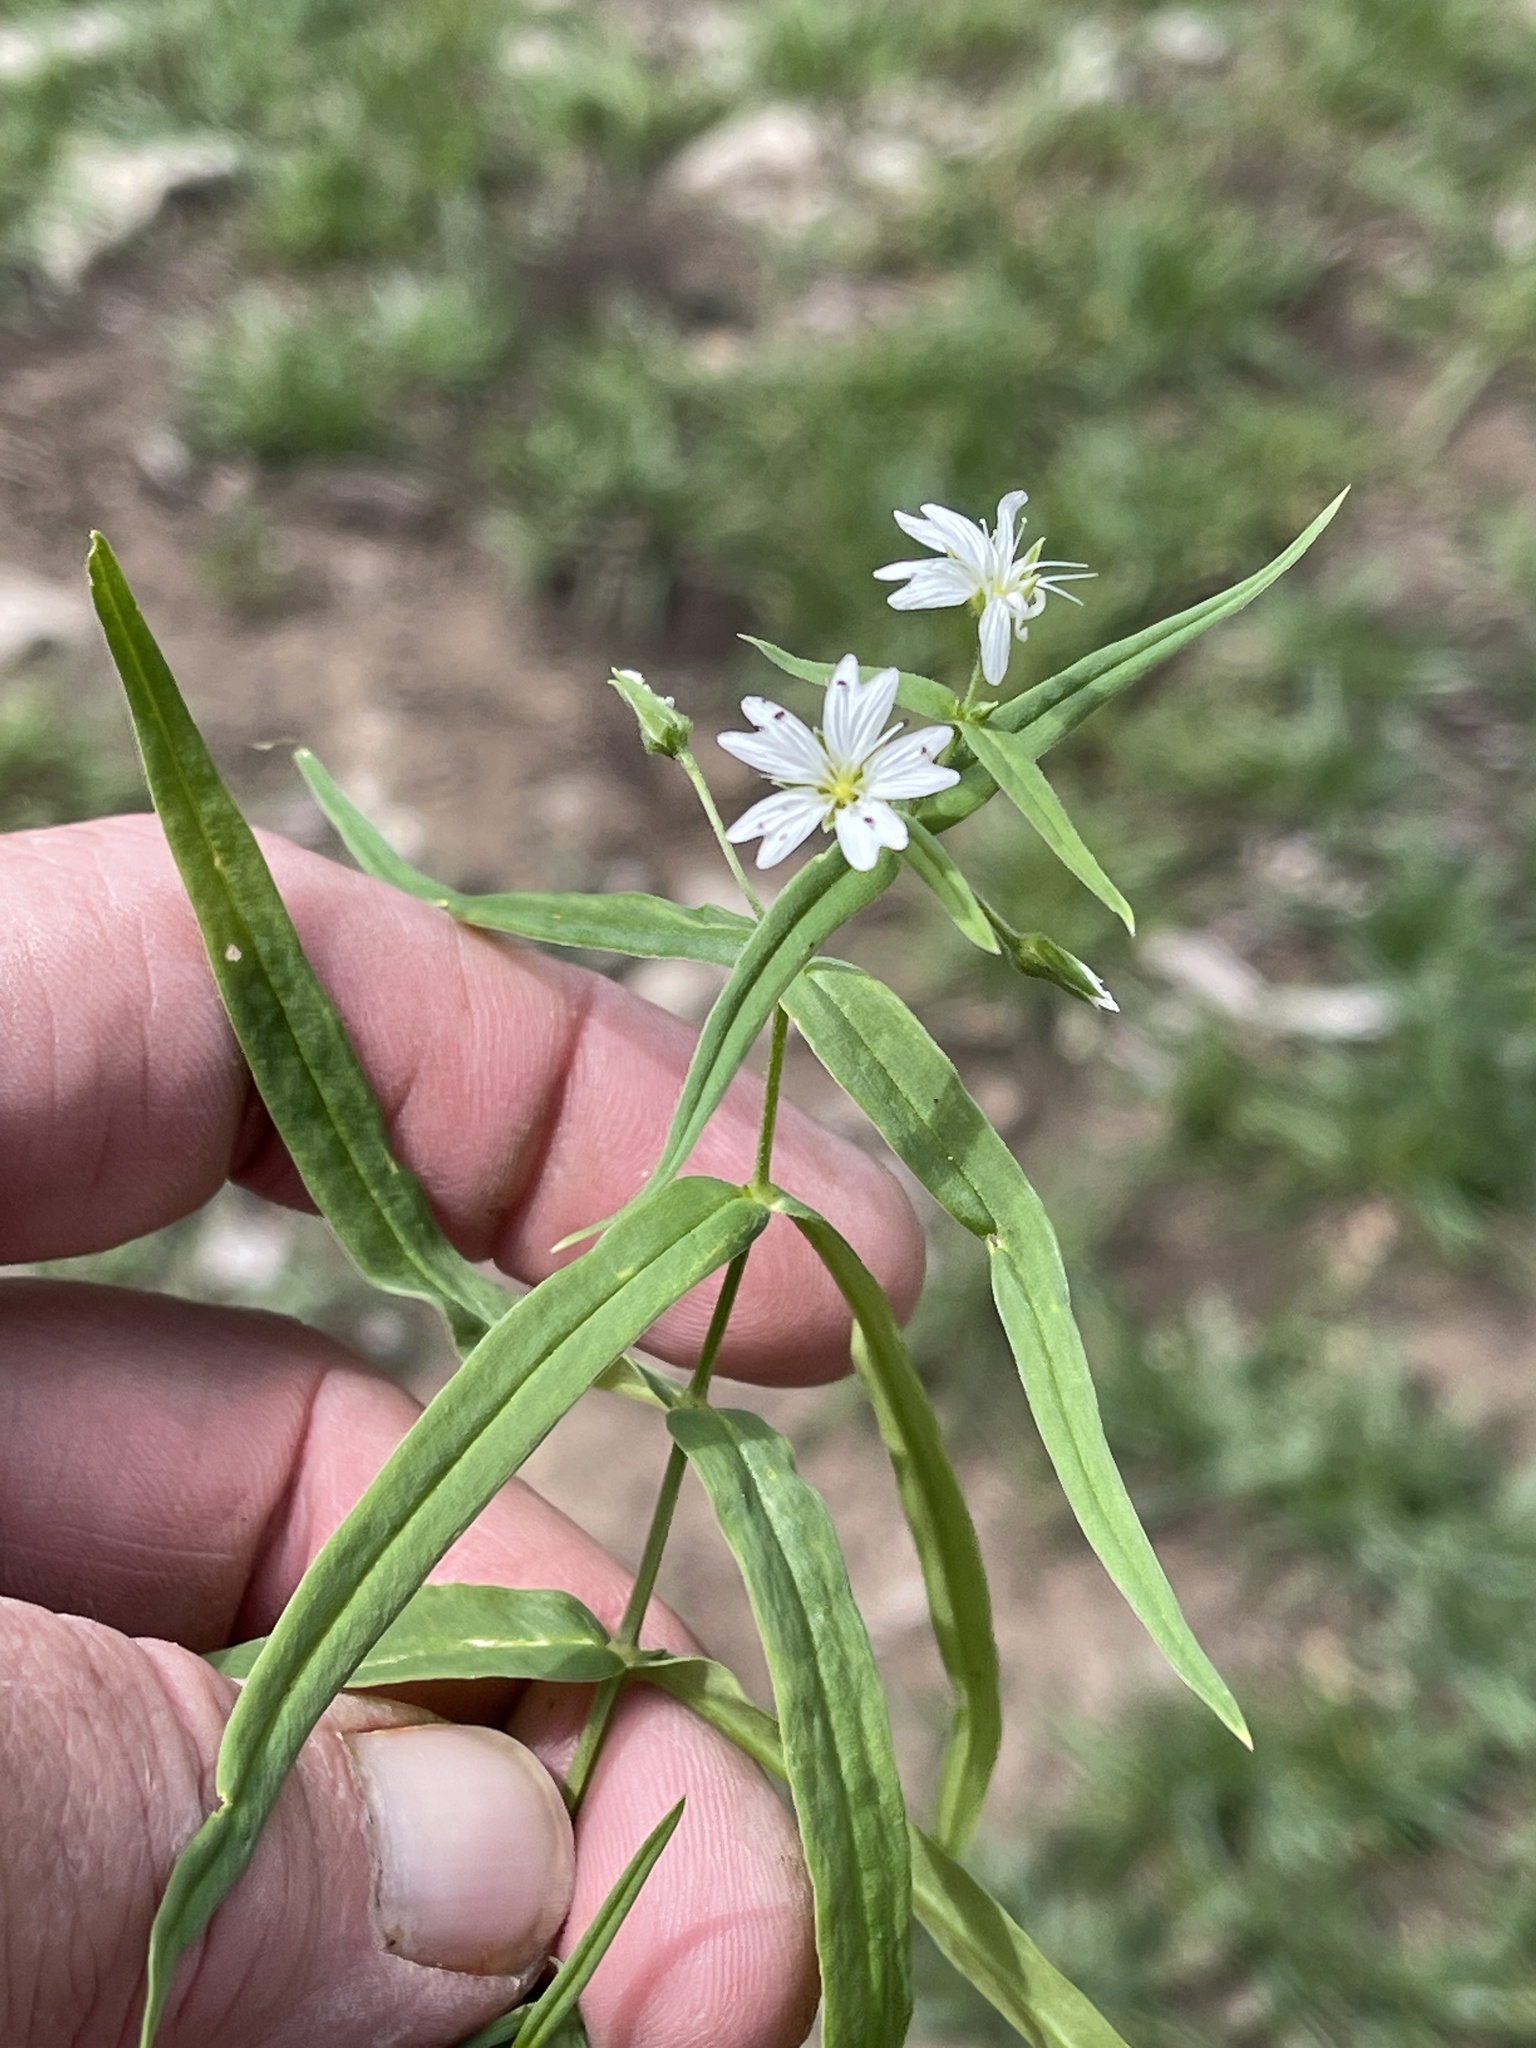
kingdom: Plantae
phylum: Tracheophyta
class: Magnoliopsida
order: Caryophyllales
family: Caryophyllaceae
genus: Schizotechium
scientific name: Schizotechium jamesianum
